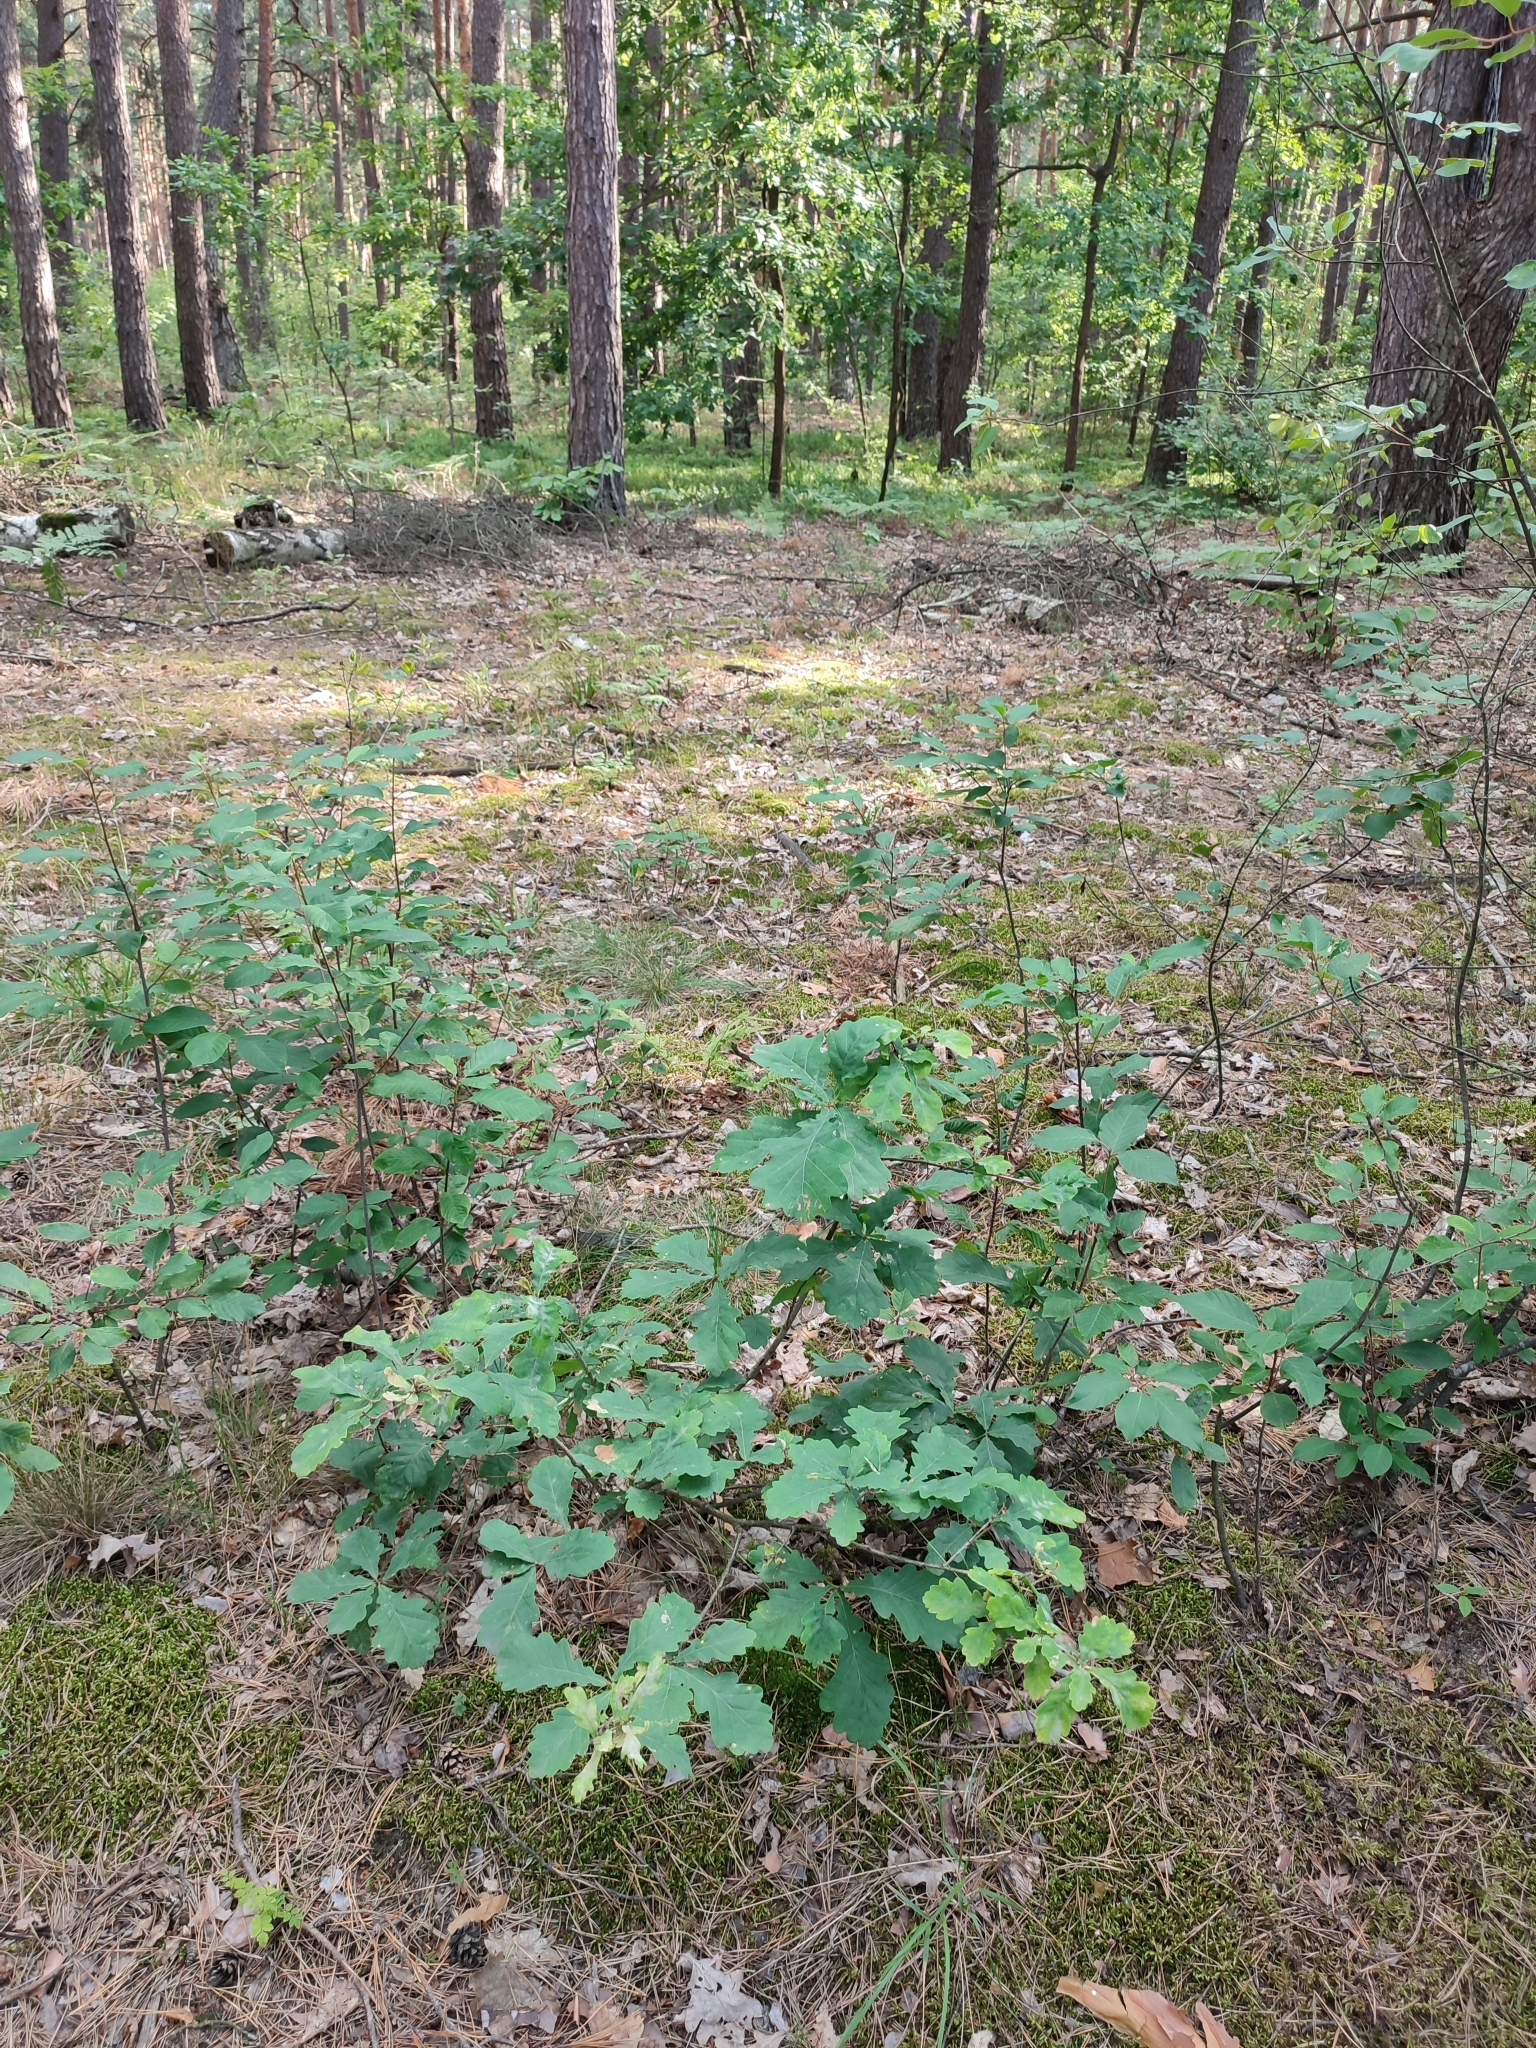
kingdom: Plantae
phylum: Tracheophyta
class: Magnoliopsida
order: Fagales
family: Fagaceae
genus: Quercus
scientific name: Quercus robur
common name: Pedunculate oak
